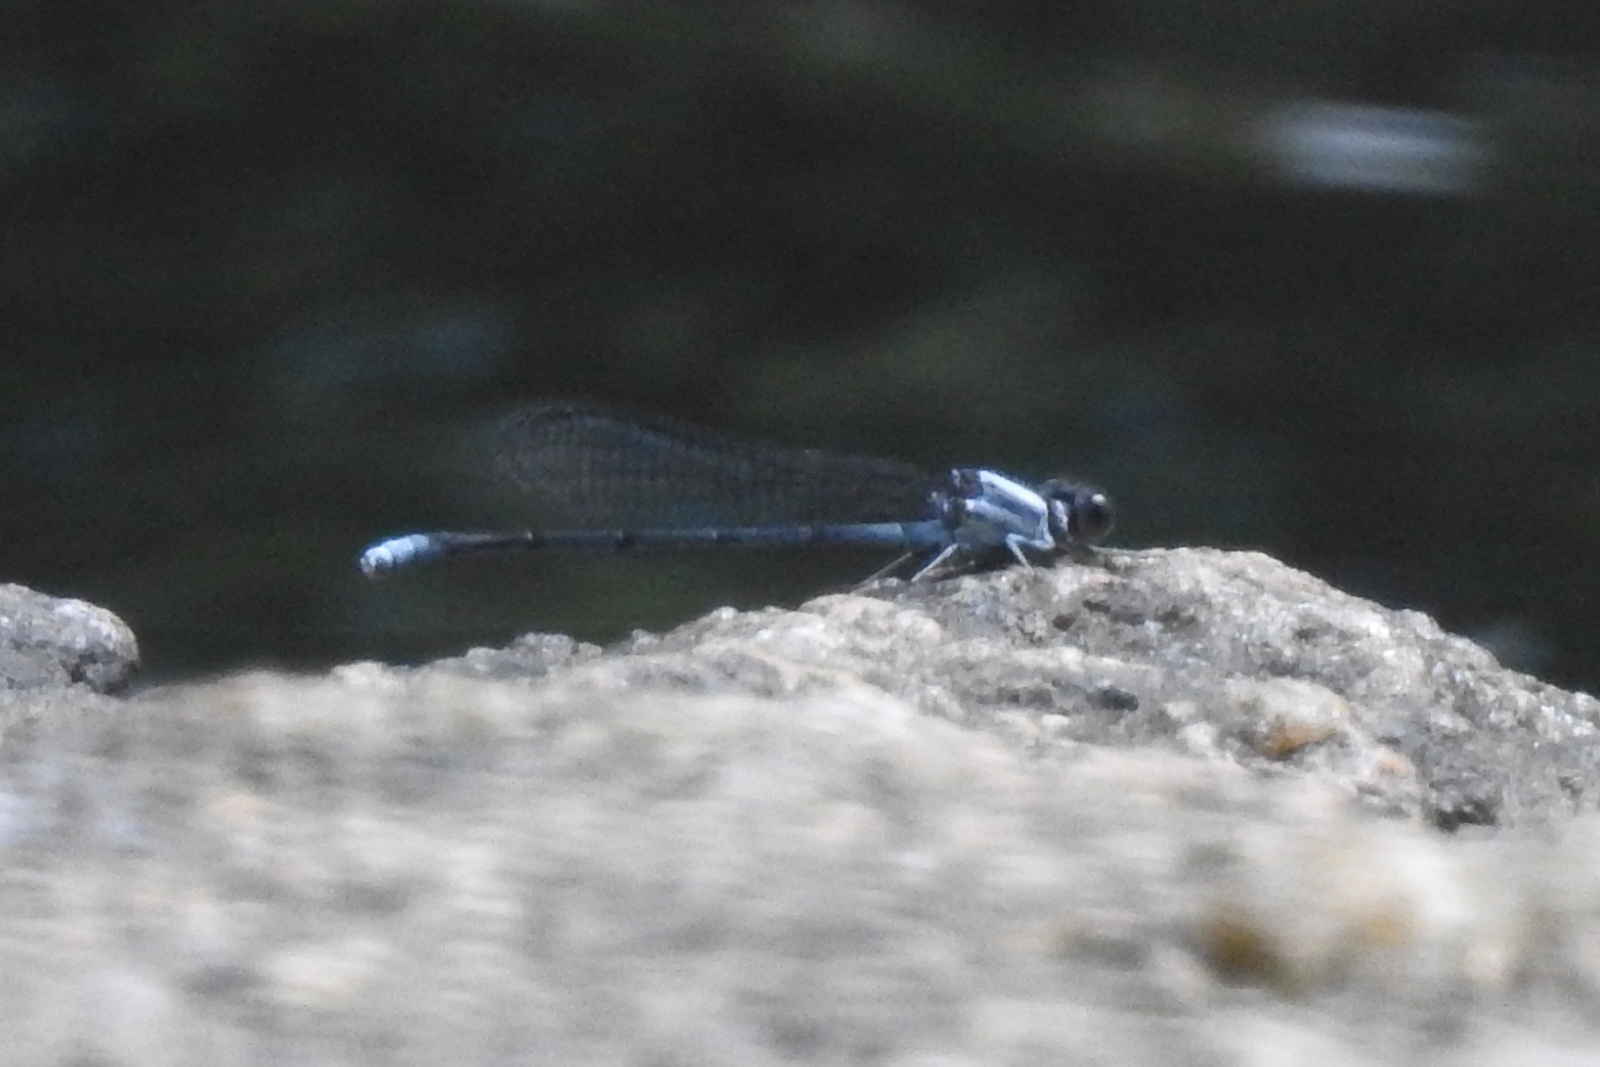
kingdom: Animalia
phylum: Arthropoda
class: Insecta
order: Odonata
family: Coenagrionidae
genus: Argia
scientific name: Argia moesta
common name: Powdered dancer
